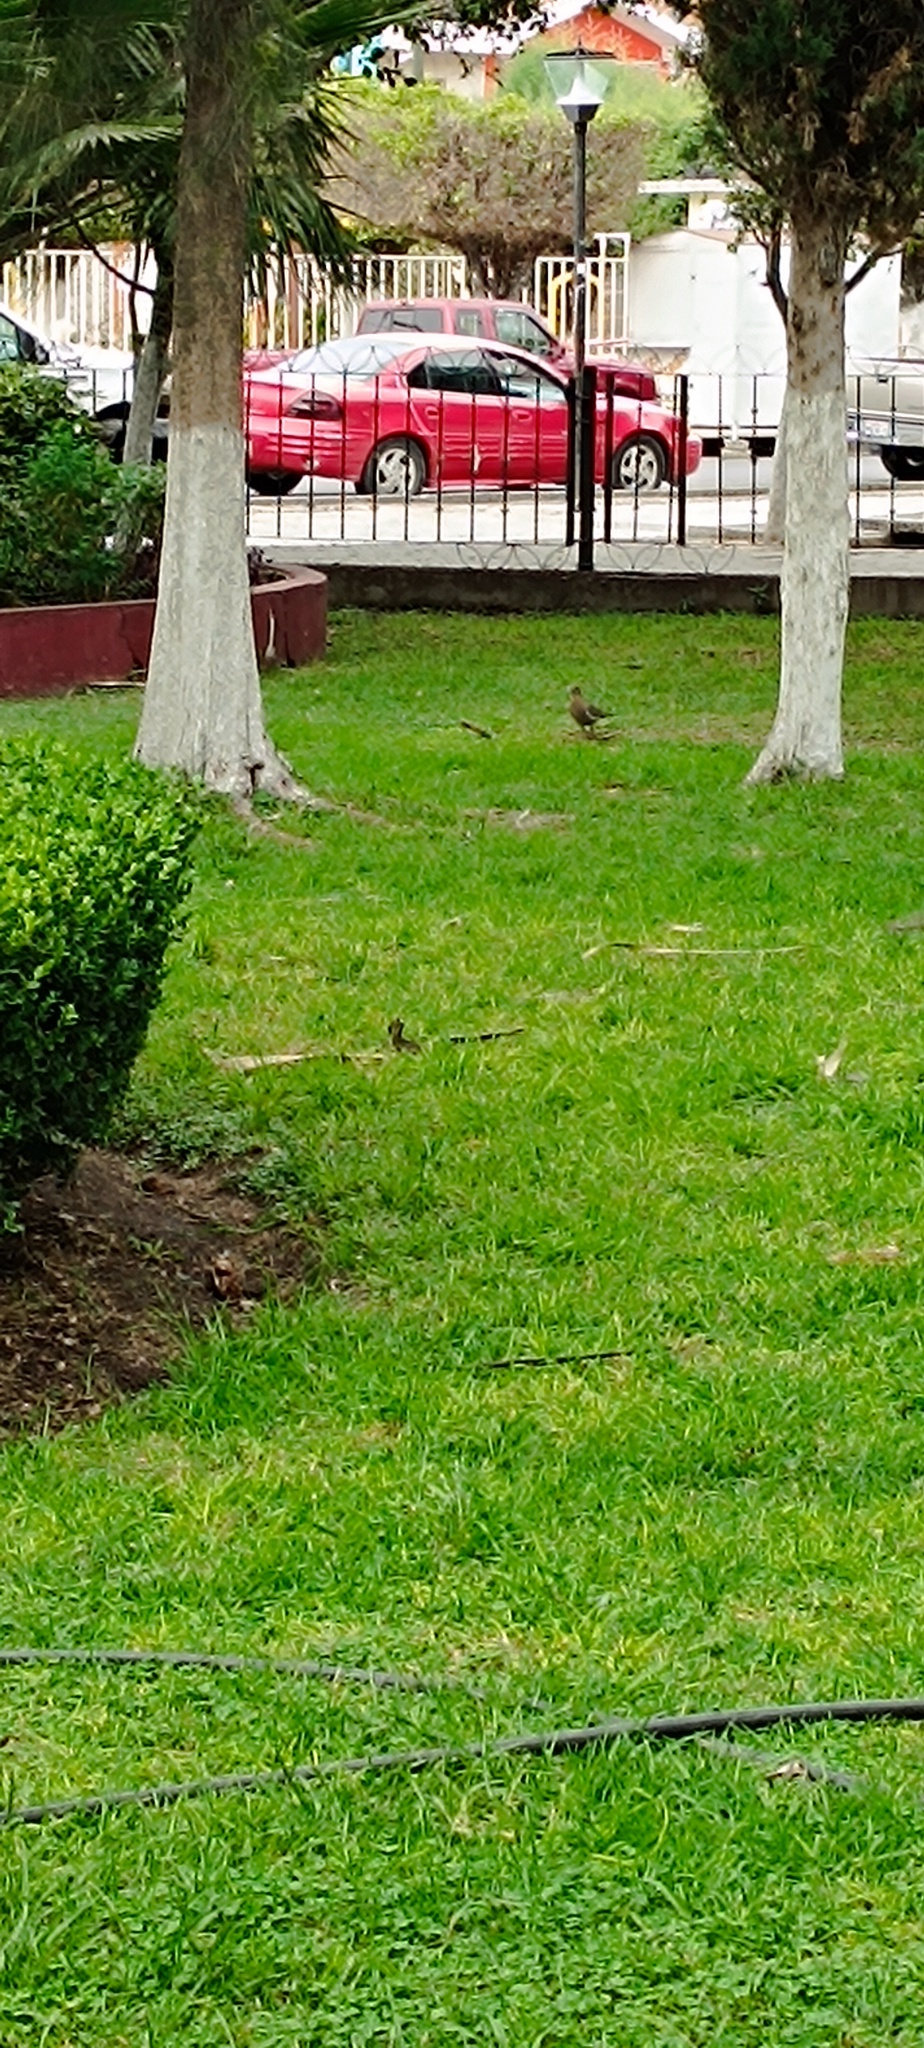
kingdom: Animalia
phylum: Chordata
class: Aves
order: Columbiformes
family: Columbidae
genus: Zenaida
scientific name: Zenaida asiatica
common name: White-winged dove
